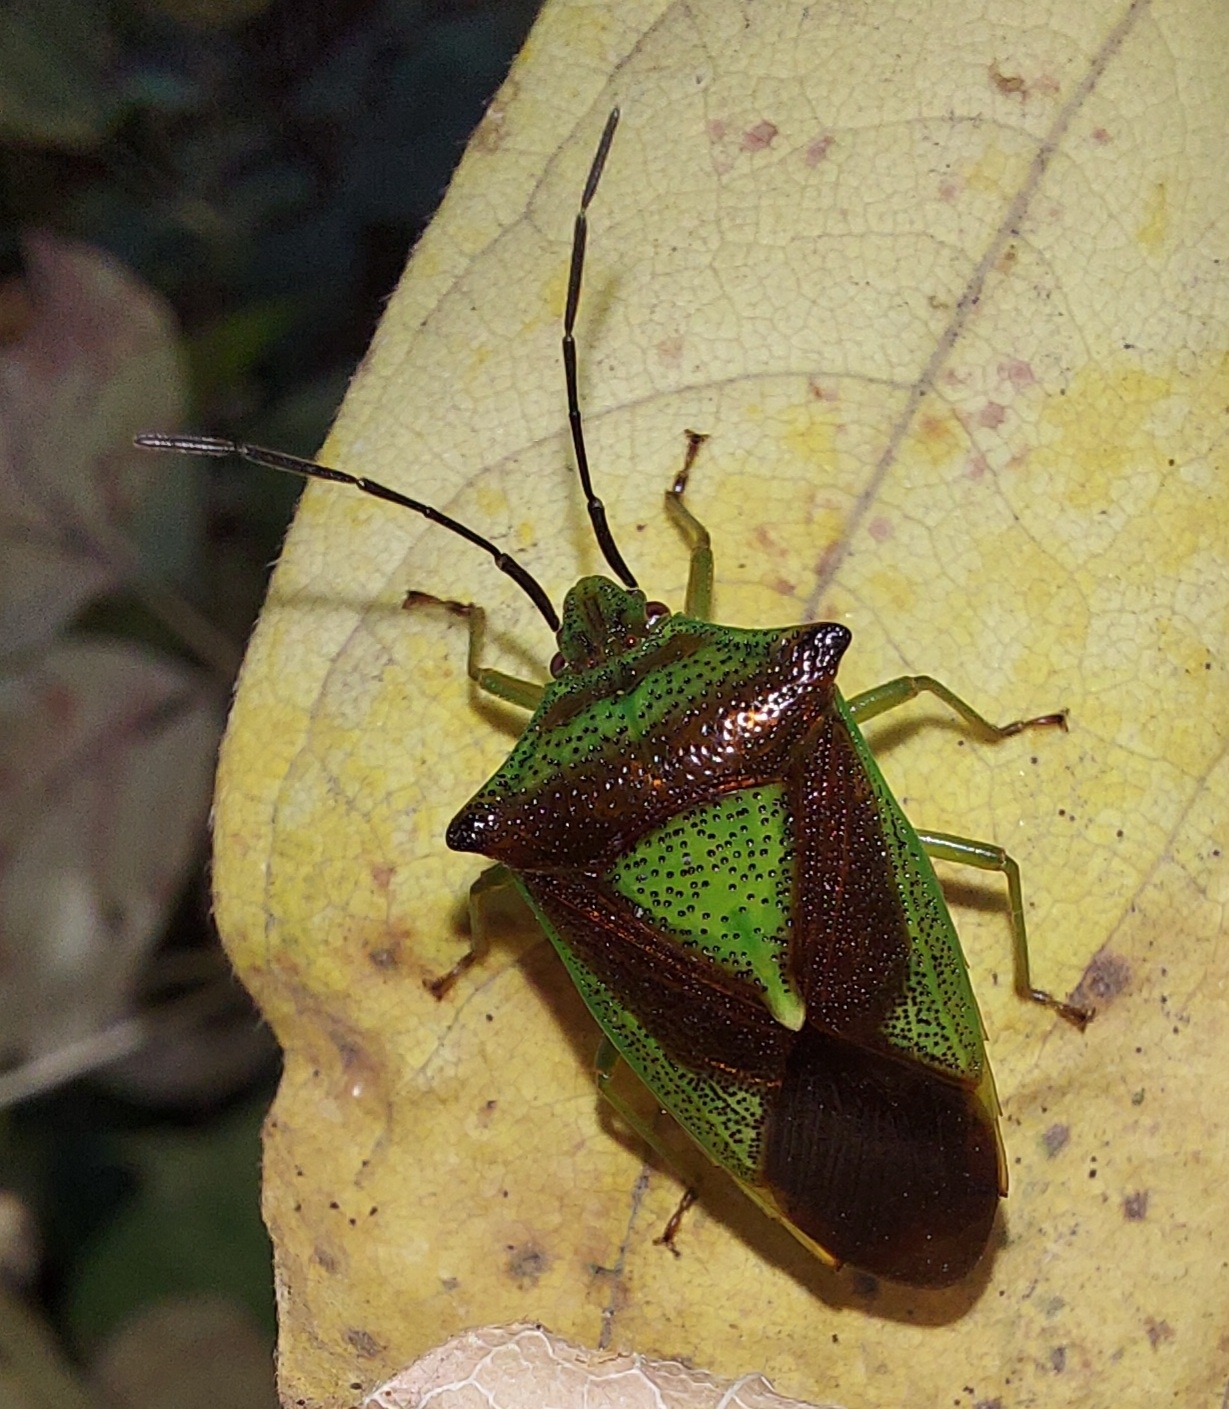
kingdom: Animalia
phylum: Arthropoda
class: Insecta
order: Hemiptera
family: Acanthosomatidae
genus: Acanthosoma
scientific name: Acanthosoma haemorrhoidale
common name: Hawthorn shieldbug
